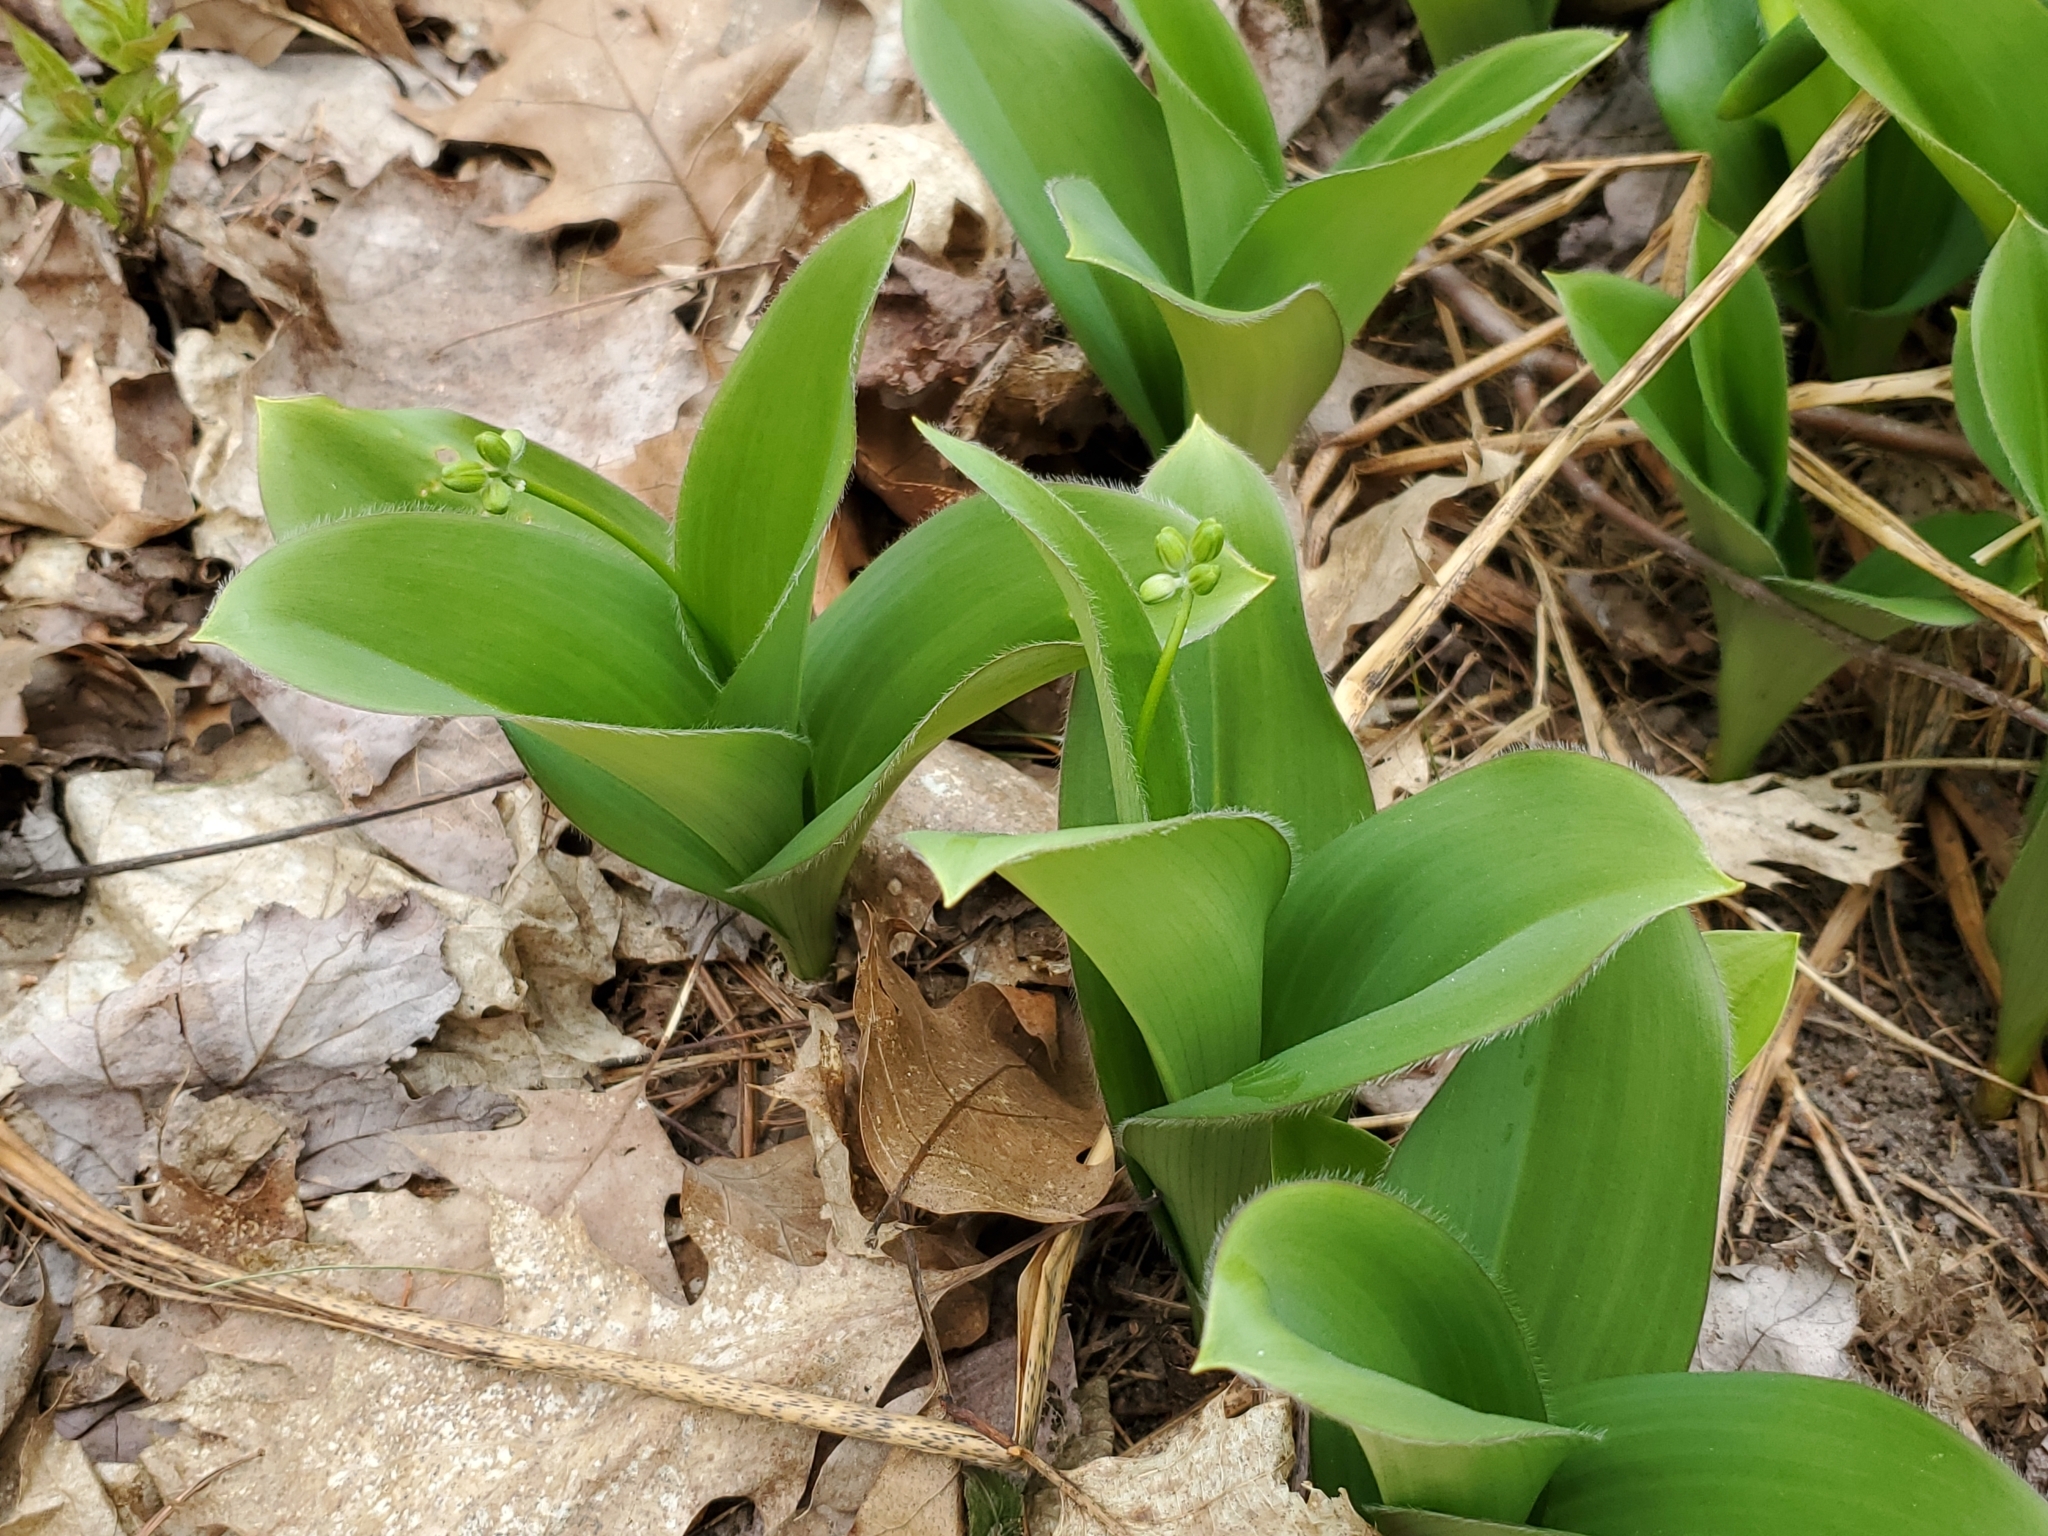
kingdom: Plantae
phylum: Tracheophyta
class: Liliopsida
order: Liliales
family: Liliaceae
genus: Clintonia
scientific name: Clintonia borealis
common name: Yellow clintonia
